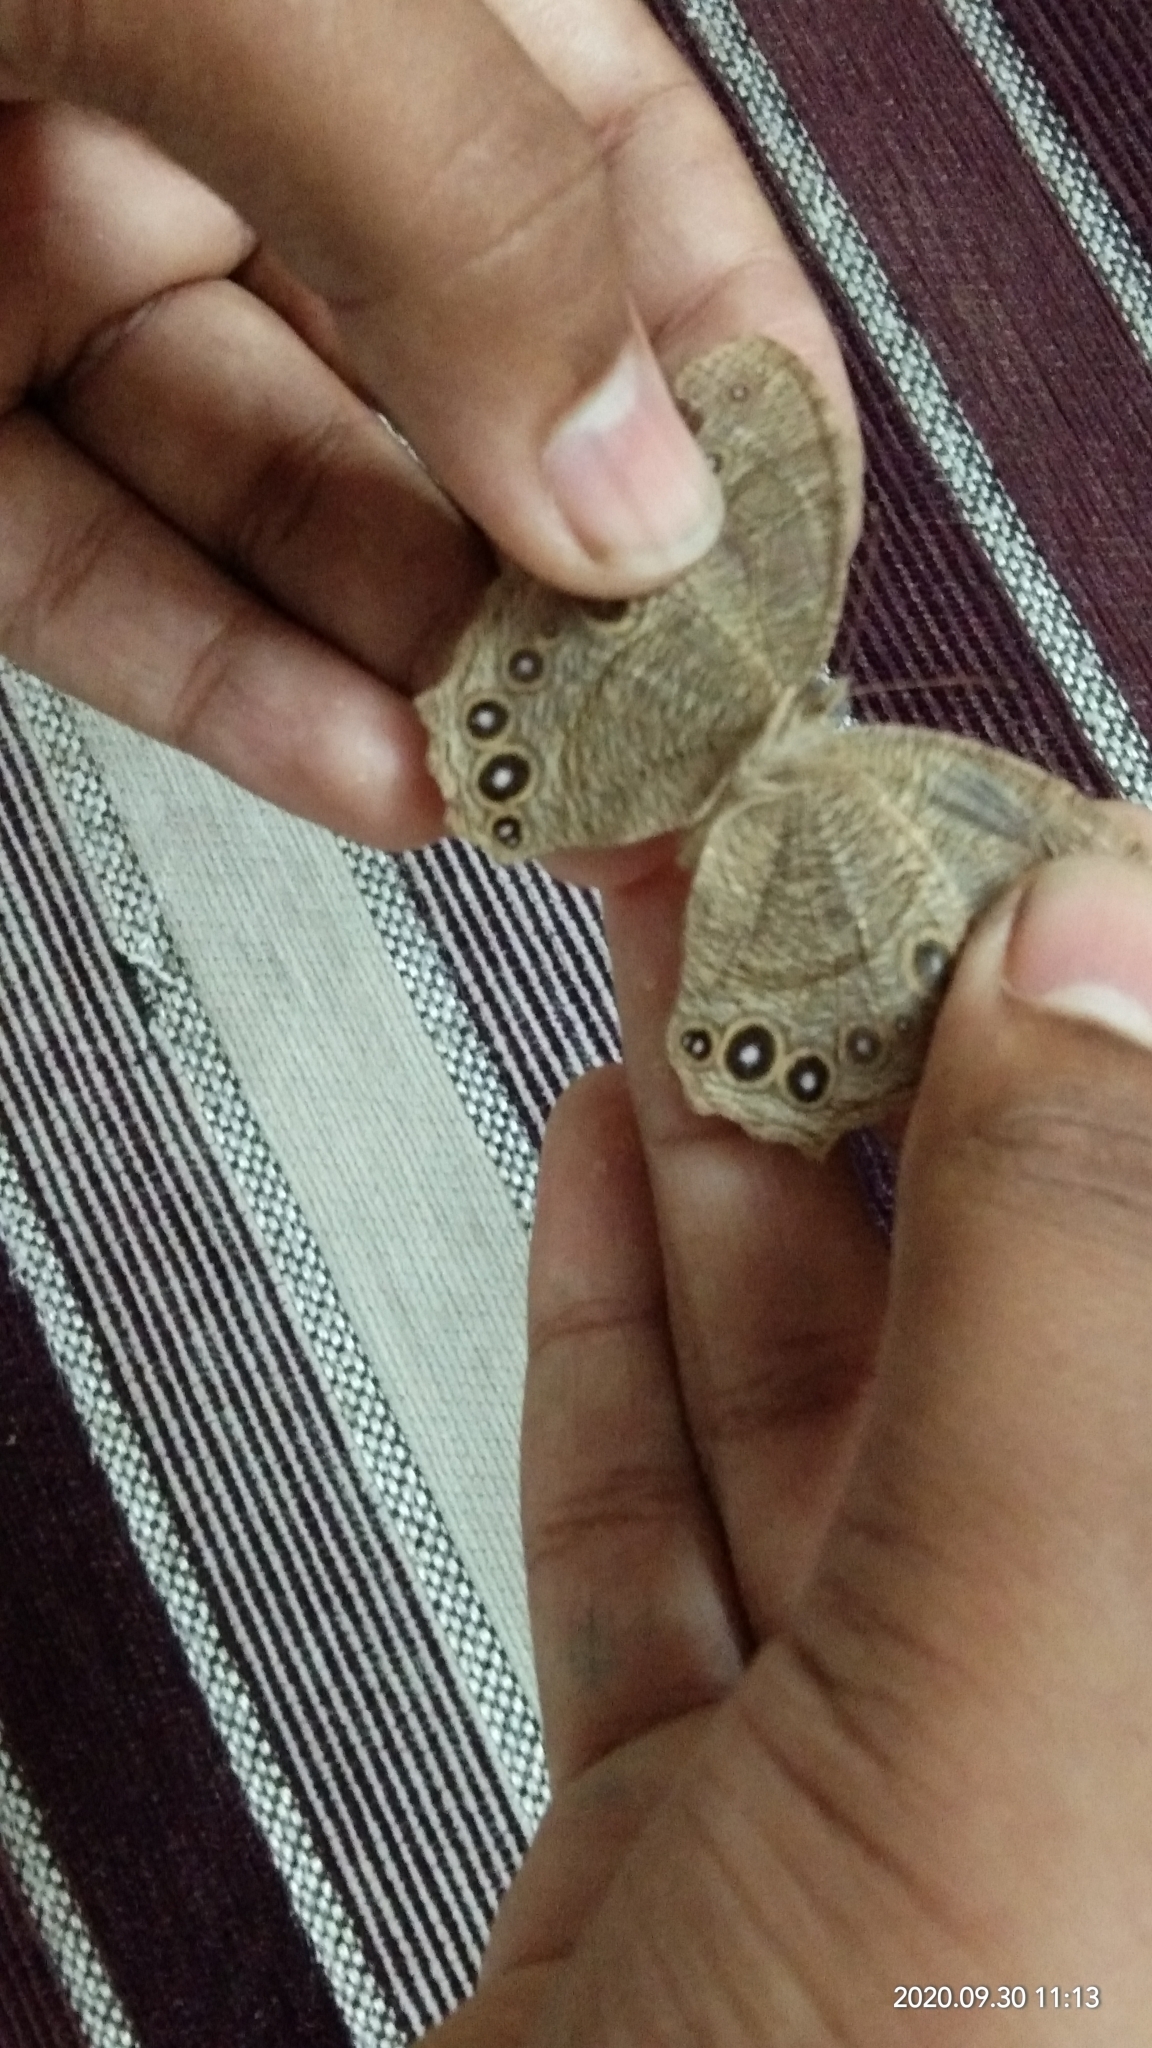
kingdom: Animalia
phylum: Arthropoda
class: Insecta
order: Lepidoptera
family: Nymphalidae
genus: Melanitis
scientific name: Melanitis leda
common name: Twilight brown
